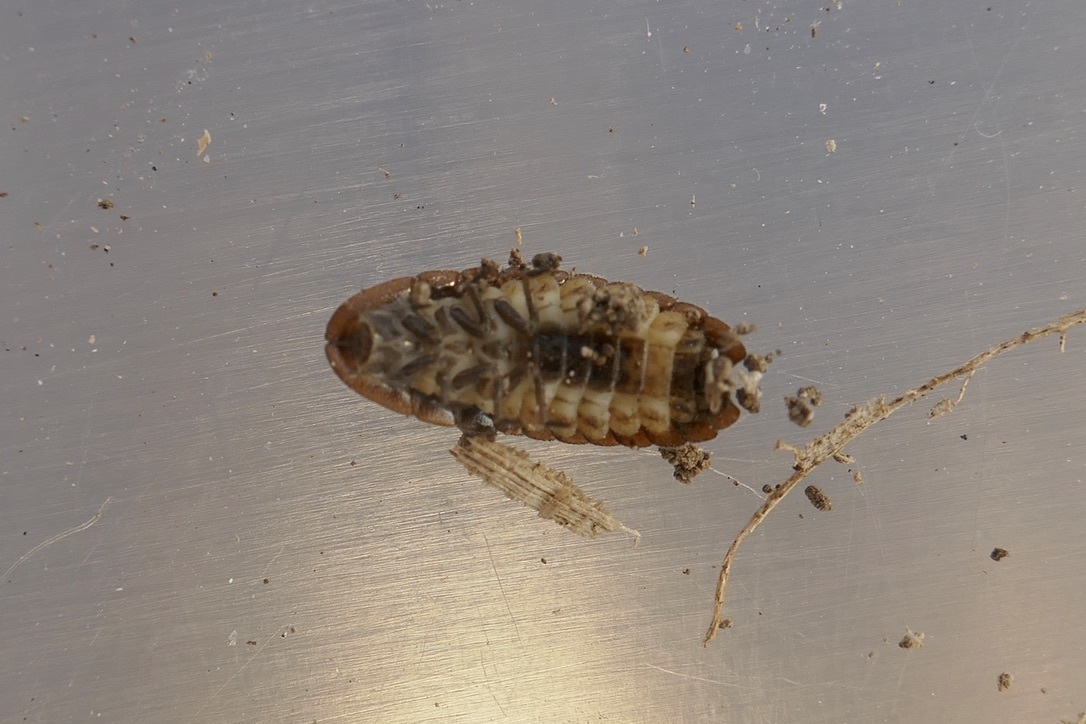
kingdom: Animalia
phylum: Arthropoda
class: Insecta
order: Coleoptera
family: Lampyridae
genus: Lamprohiza
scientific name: Lamprohiza splendidula
